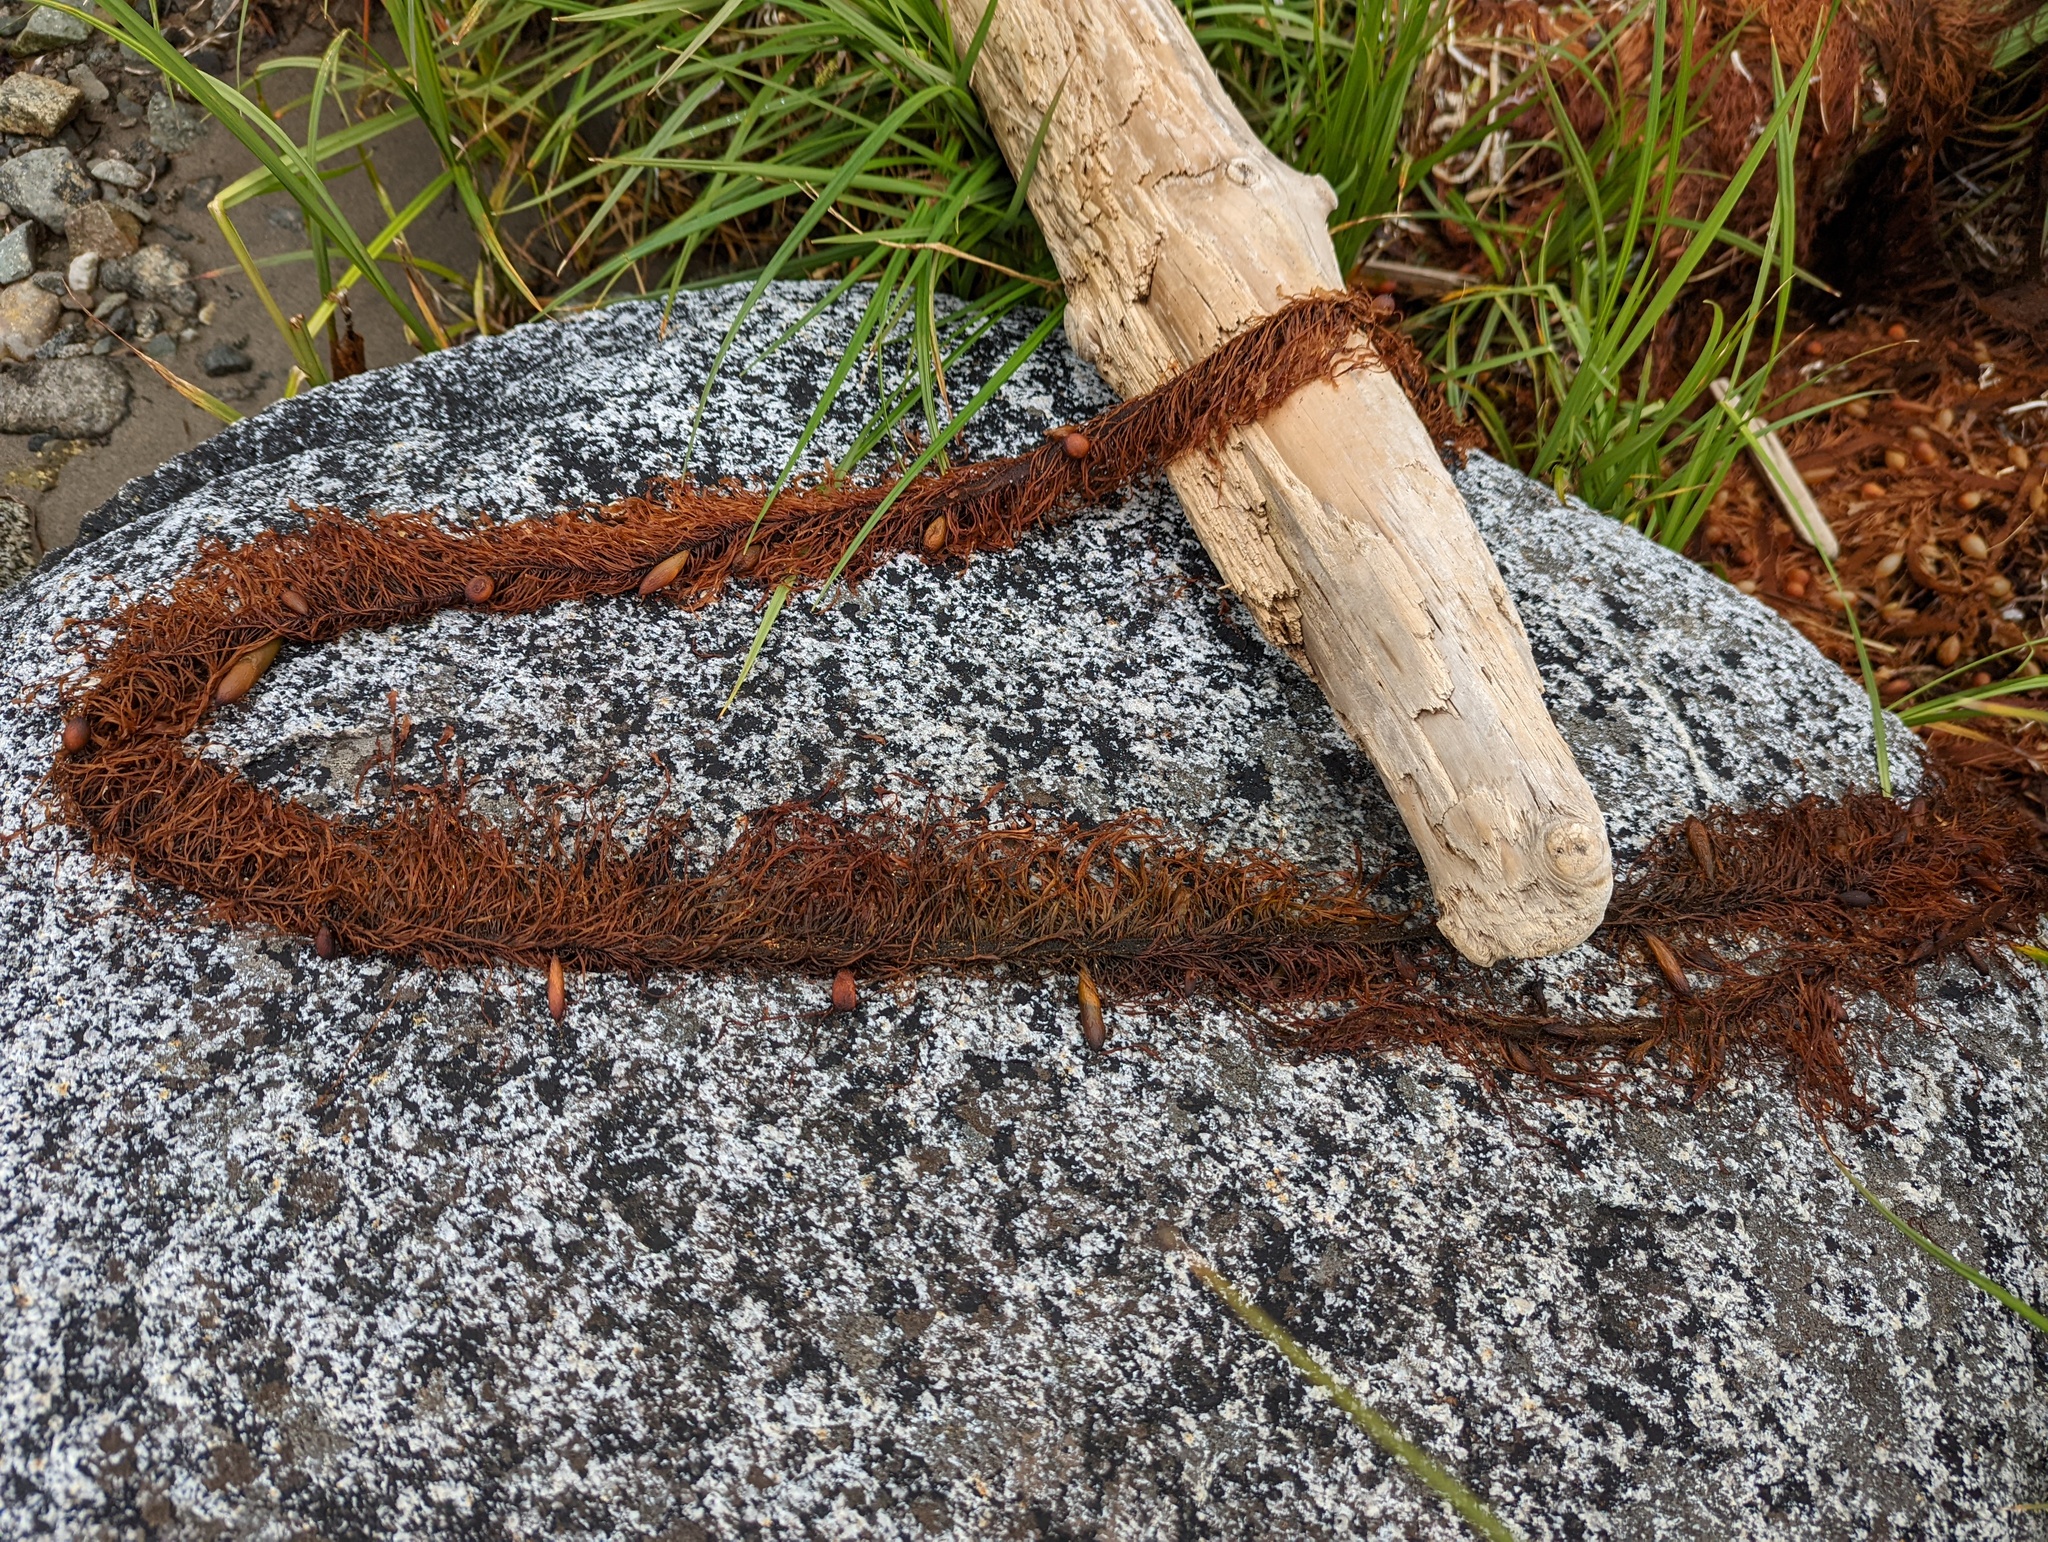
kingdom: Chromista
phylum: Ochrophyta
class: Phaeophyceae
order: Laminariales
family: Lessoniaceae
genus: Egregia
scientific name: Egregia menziesii
